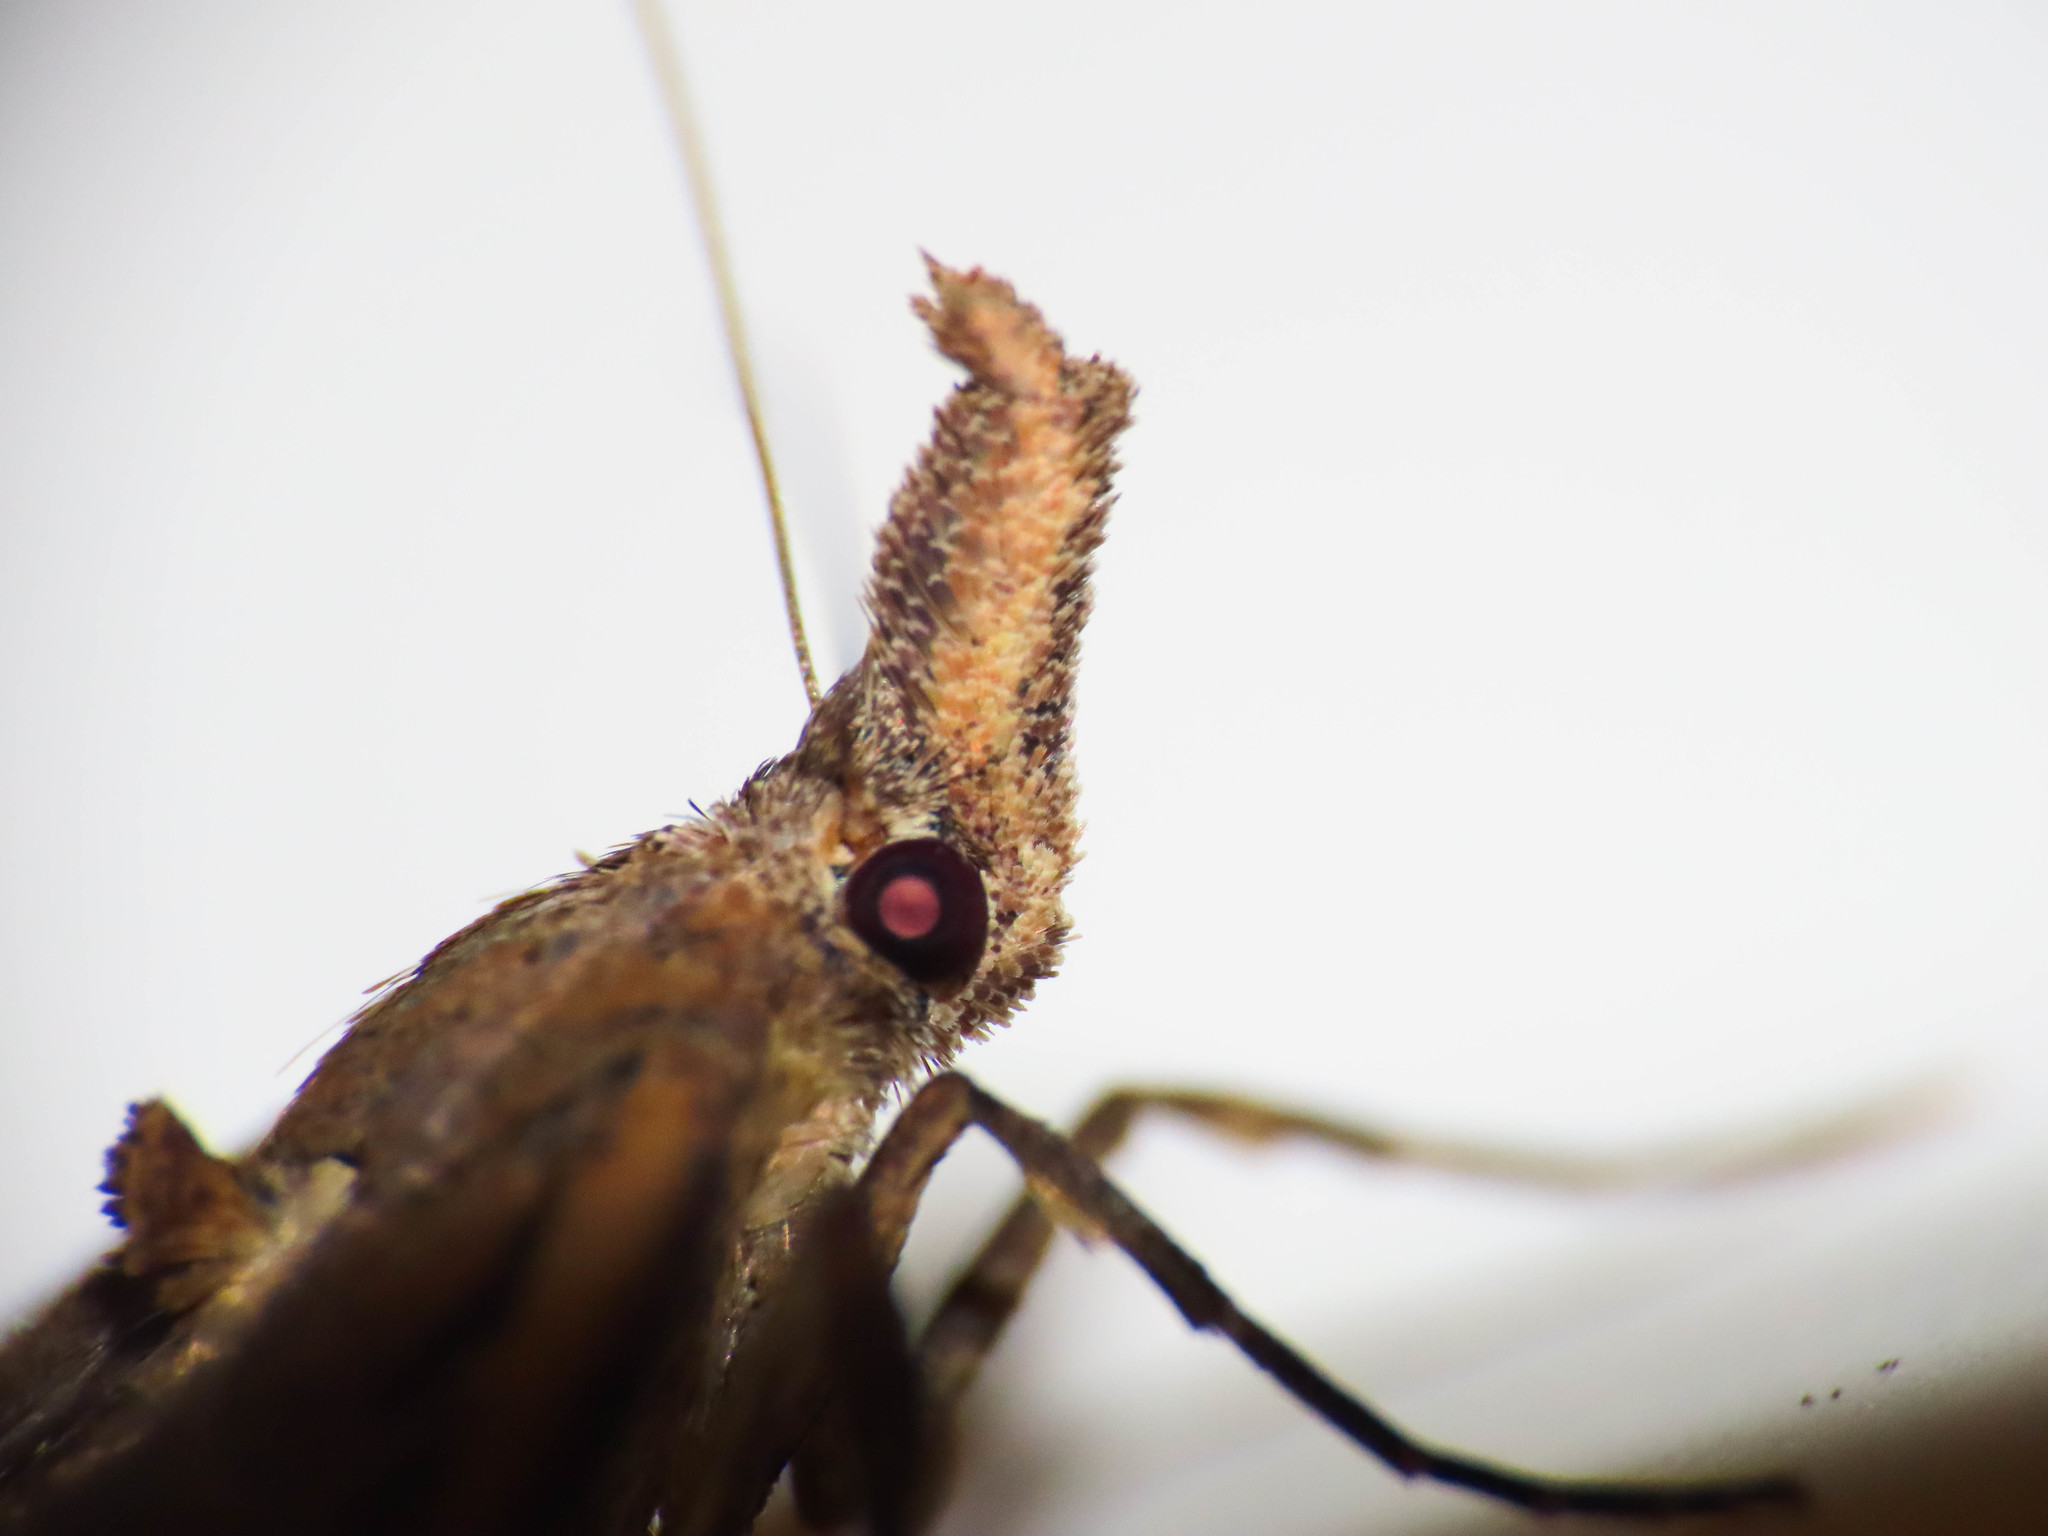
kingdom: Animalia
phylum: Arthropoda
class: Insecta
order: Lepidoptera
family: Erebidae
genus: Hypena
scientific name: Hypena rostralis
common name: Buttoned snout
